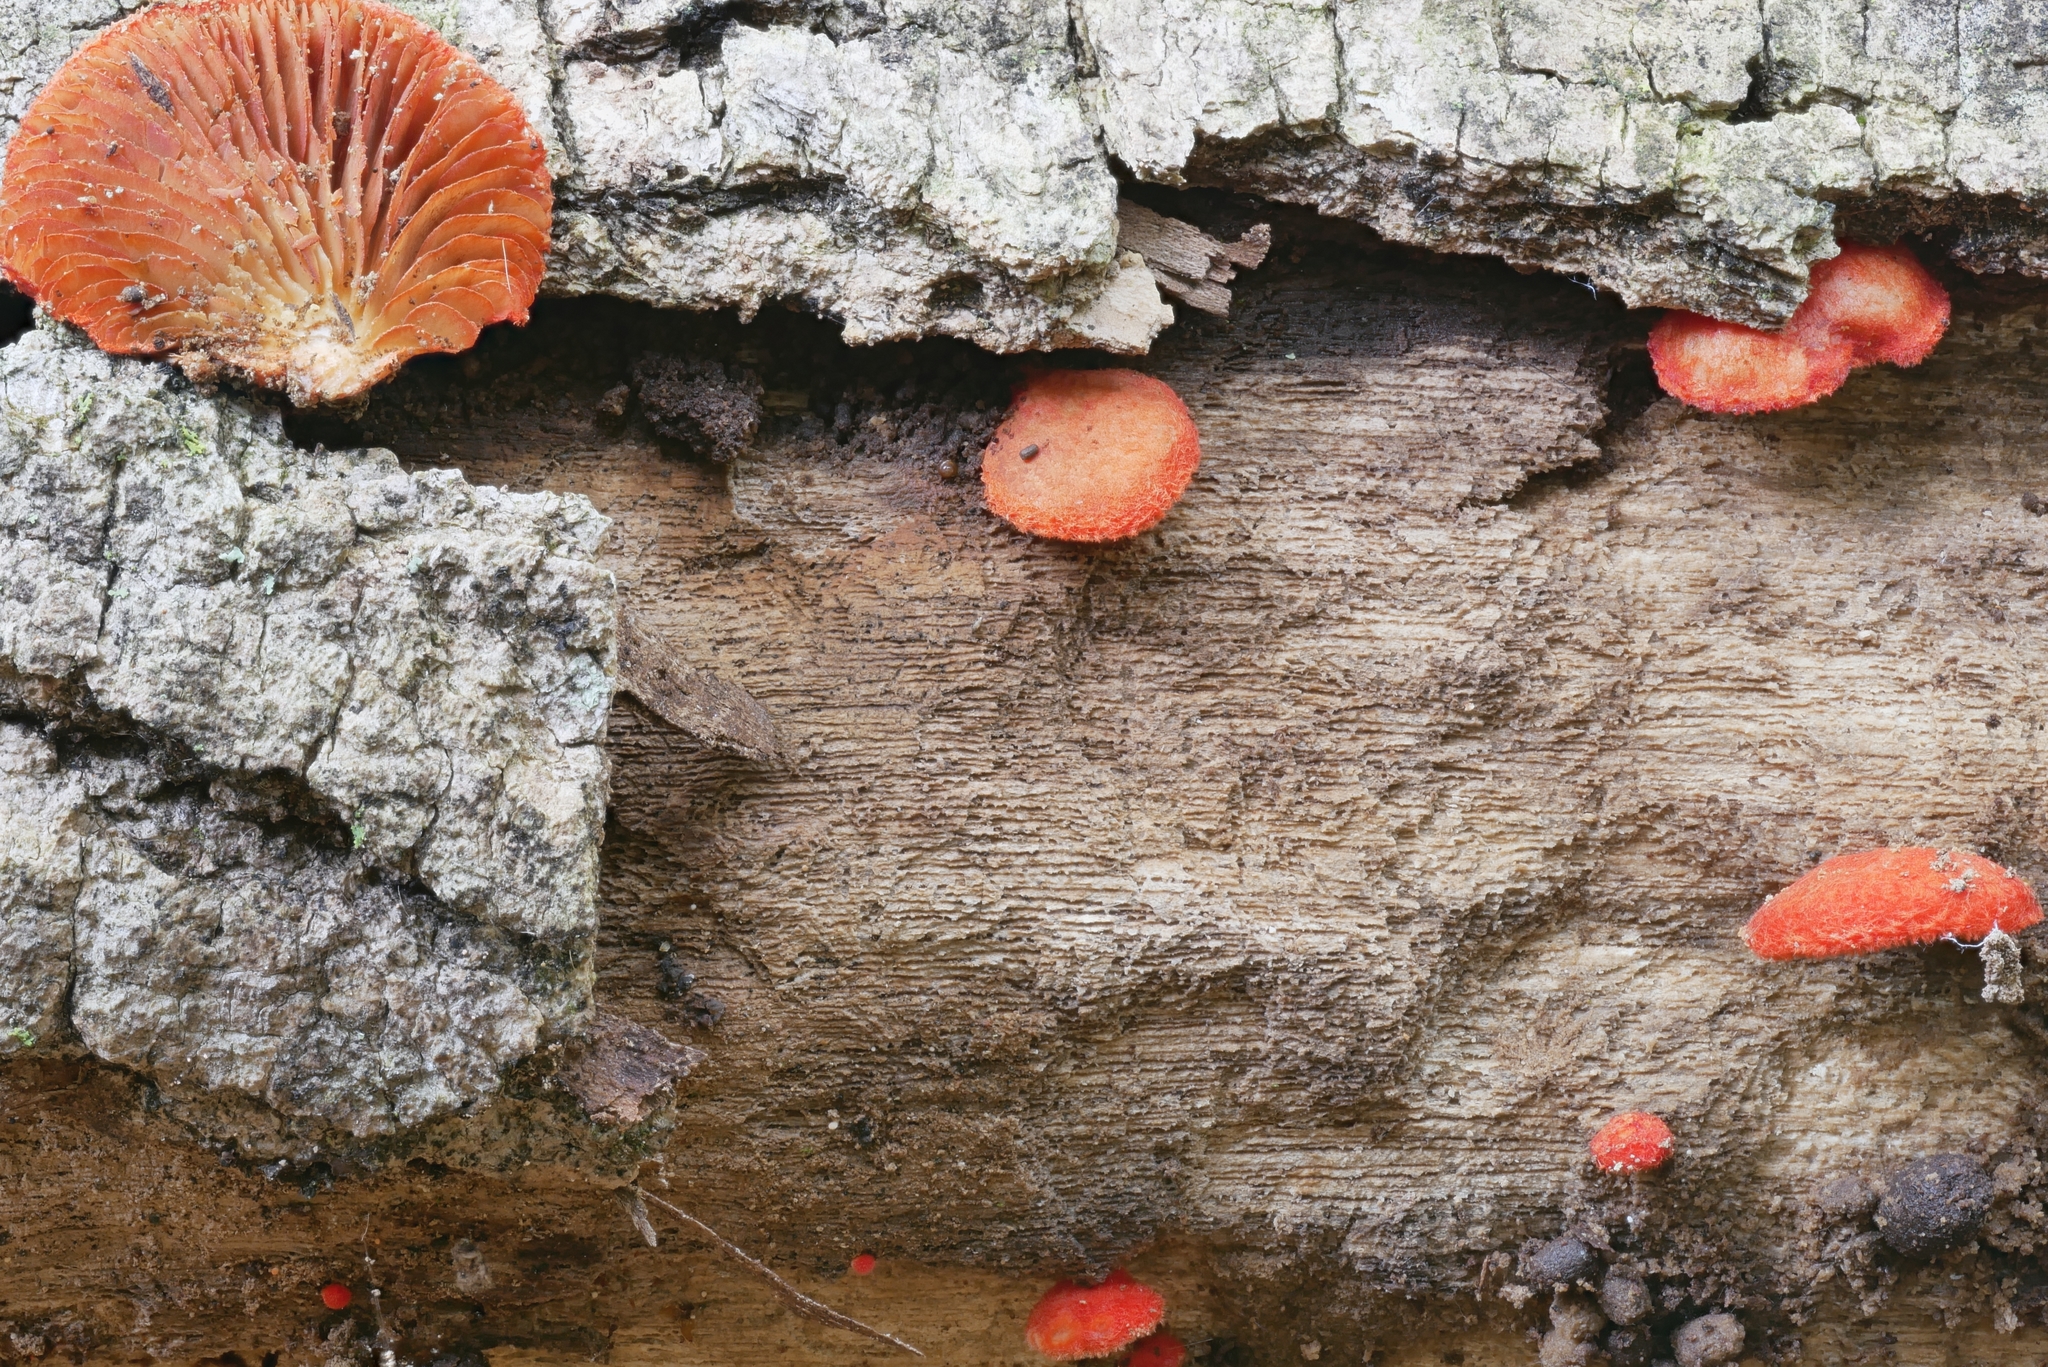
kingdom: Fungi
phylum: Basidiomycota
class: Agaricomycetes
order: Agaricales
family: Crepidotaceae
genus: Crepidotus
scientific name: Crepidotus cinnabarinus
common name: Cinnabar oysterling
